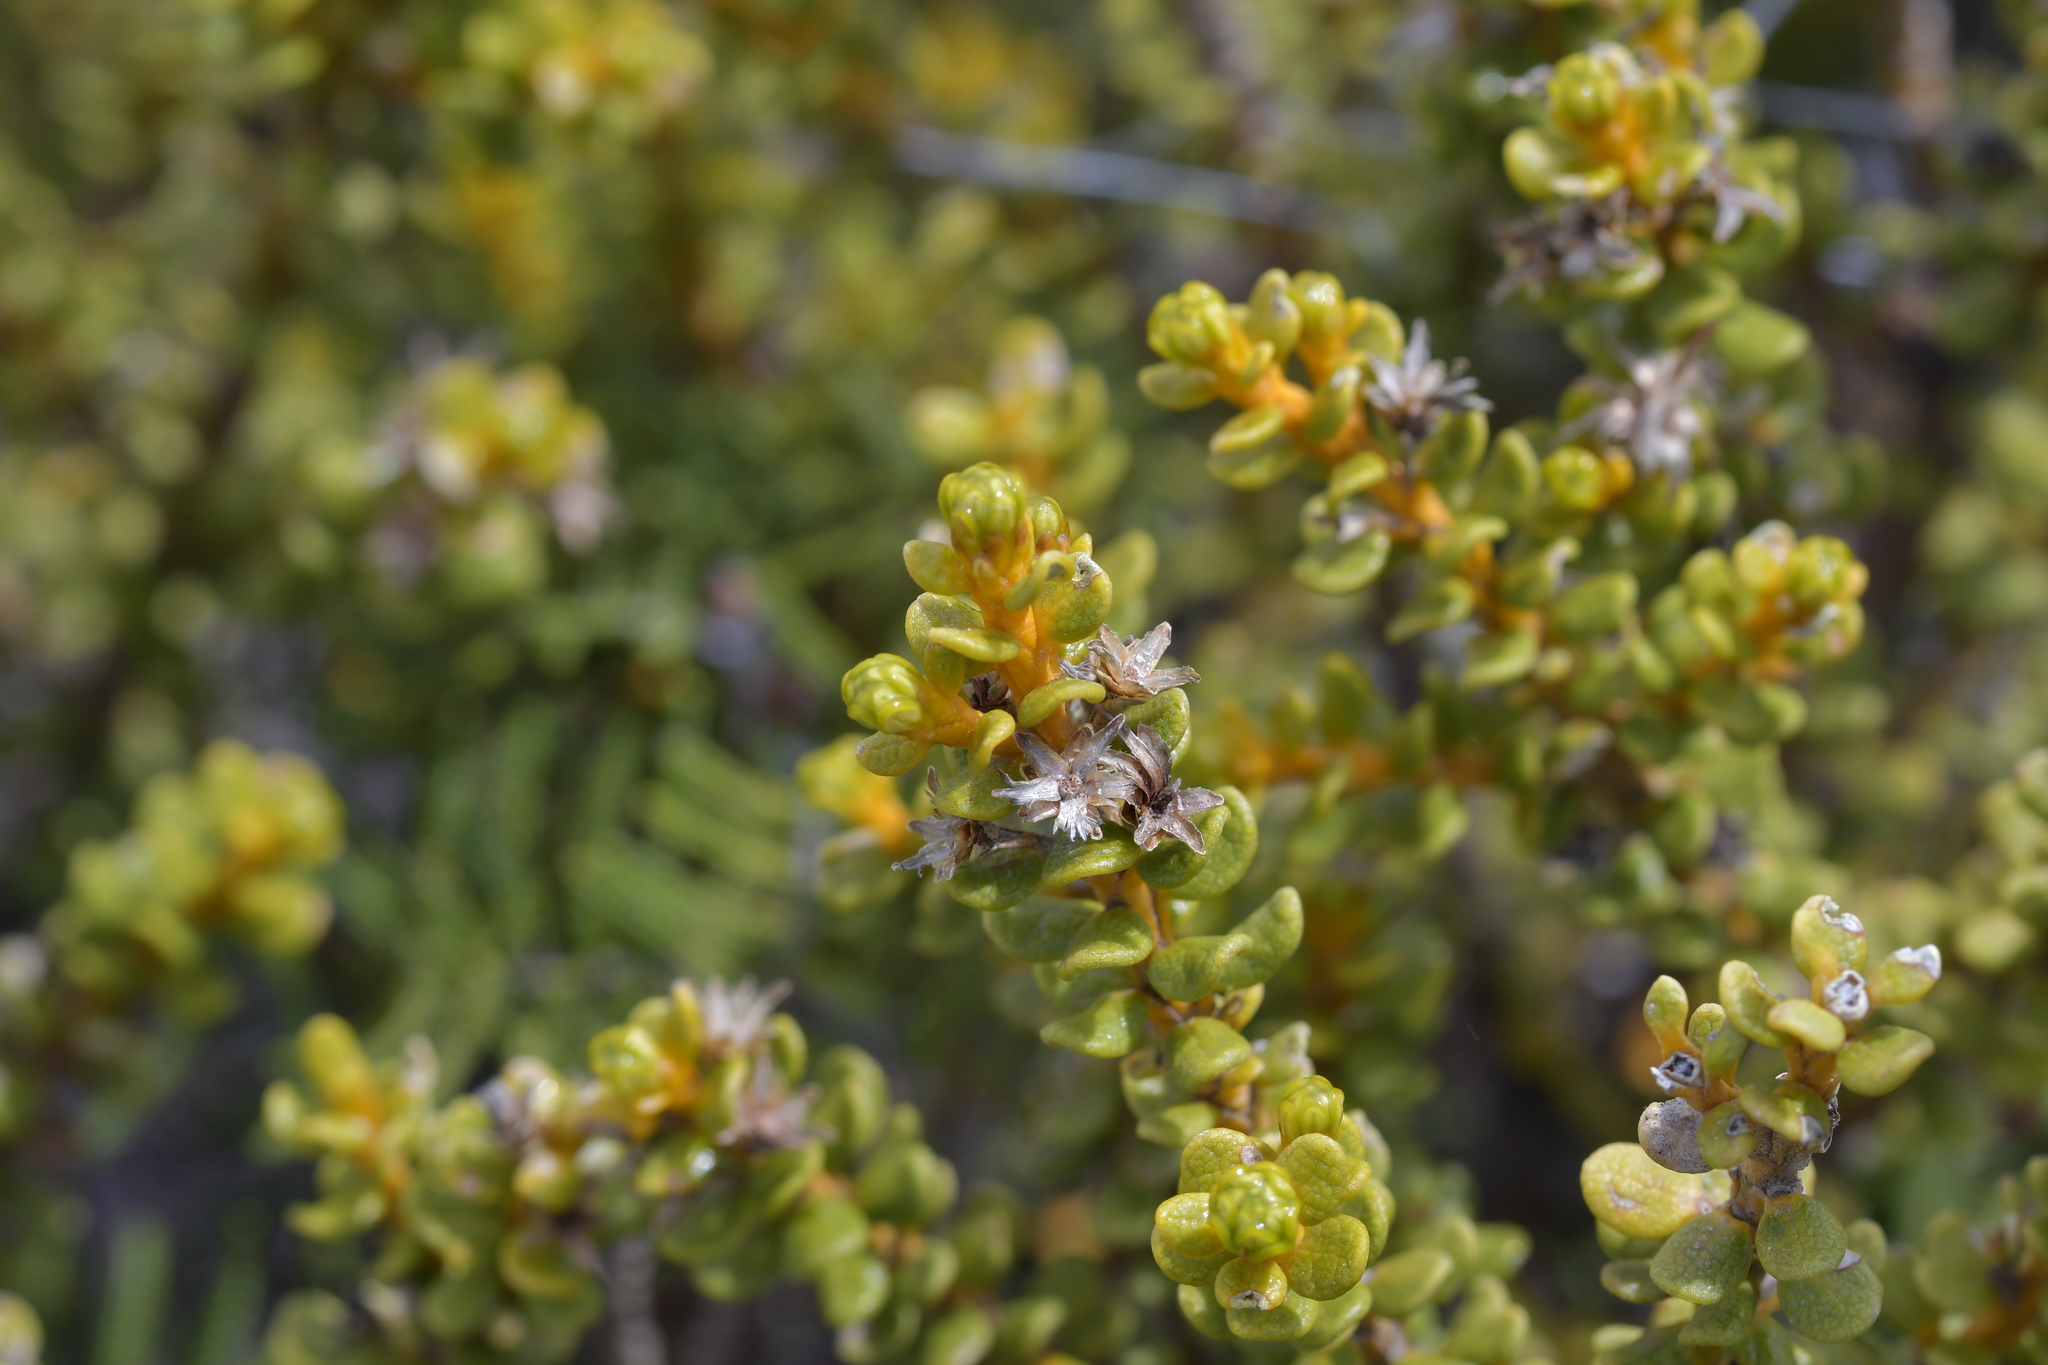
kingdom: Plantae
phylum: Tracheophyta
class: Magnoliopsida
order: Asterales
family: Asteraceae
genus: Olearia
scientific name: Olearia nummularifolia
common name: Sticky daisybush
